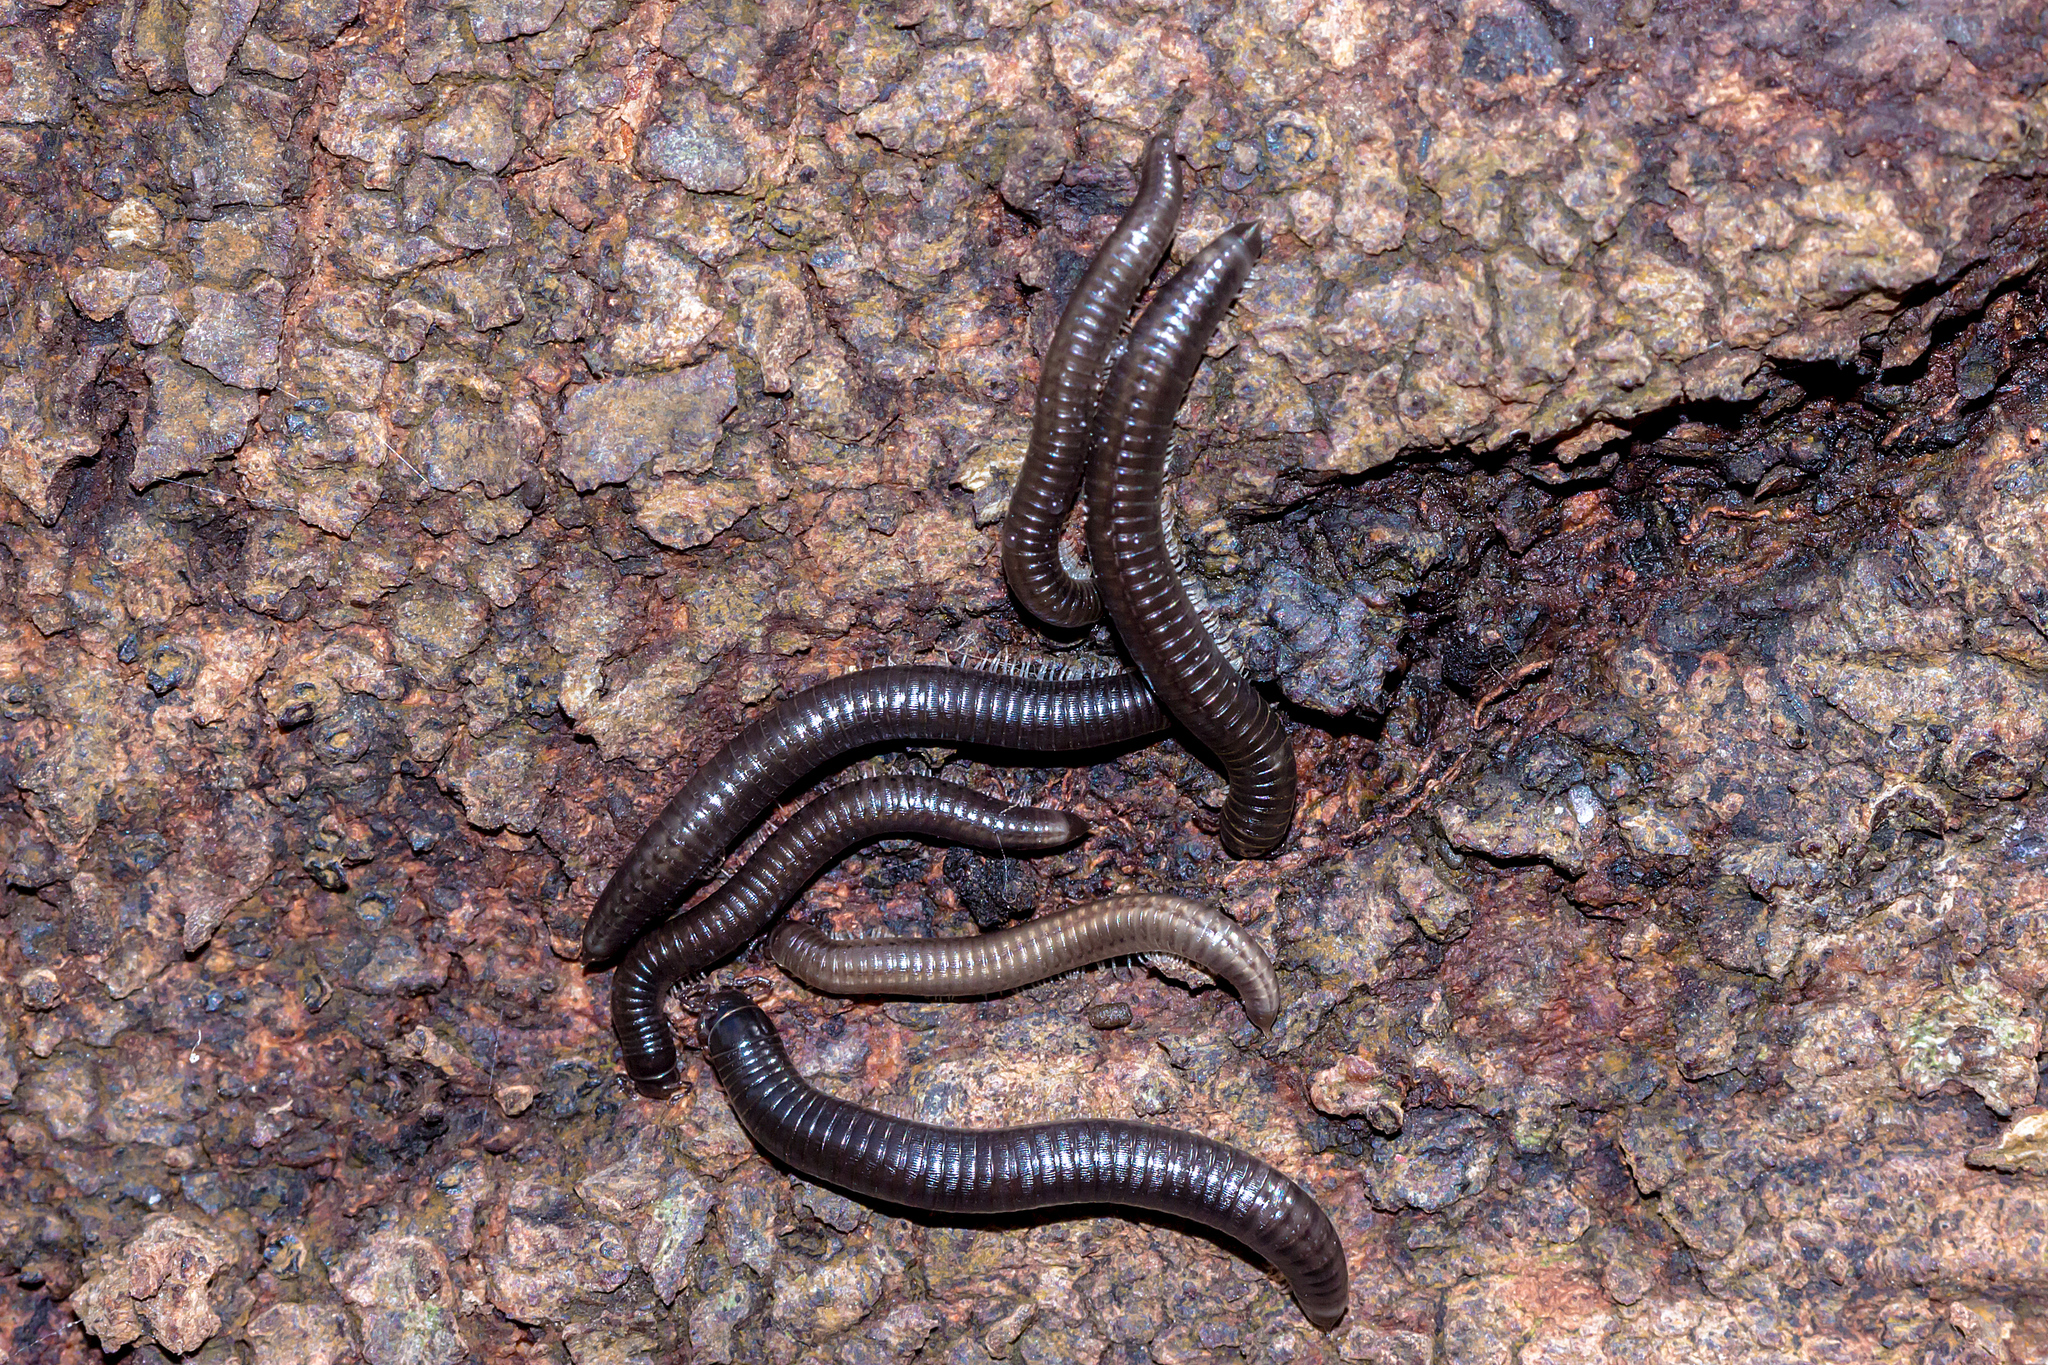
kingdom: Animalia
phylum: Arthropoda
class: Diplopoda
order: Julida
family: Julidae
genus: Ommatoiulus
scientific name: Ommatoiulus moreleti
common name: Portuguese millipede
